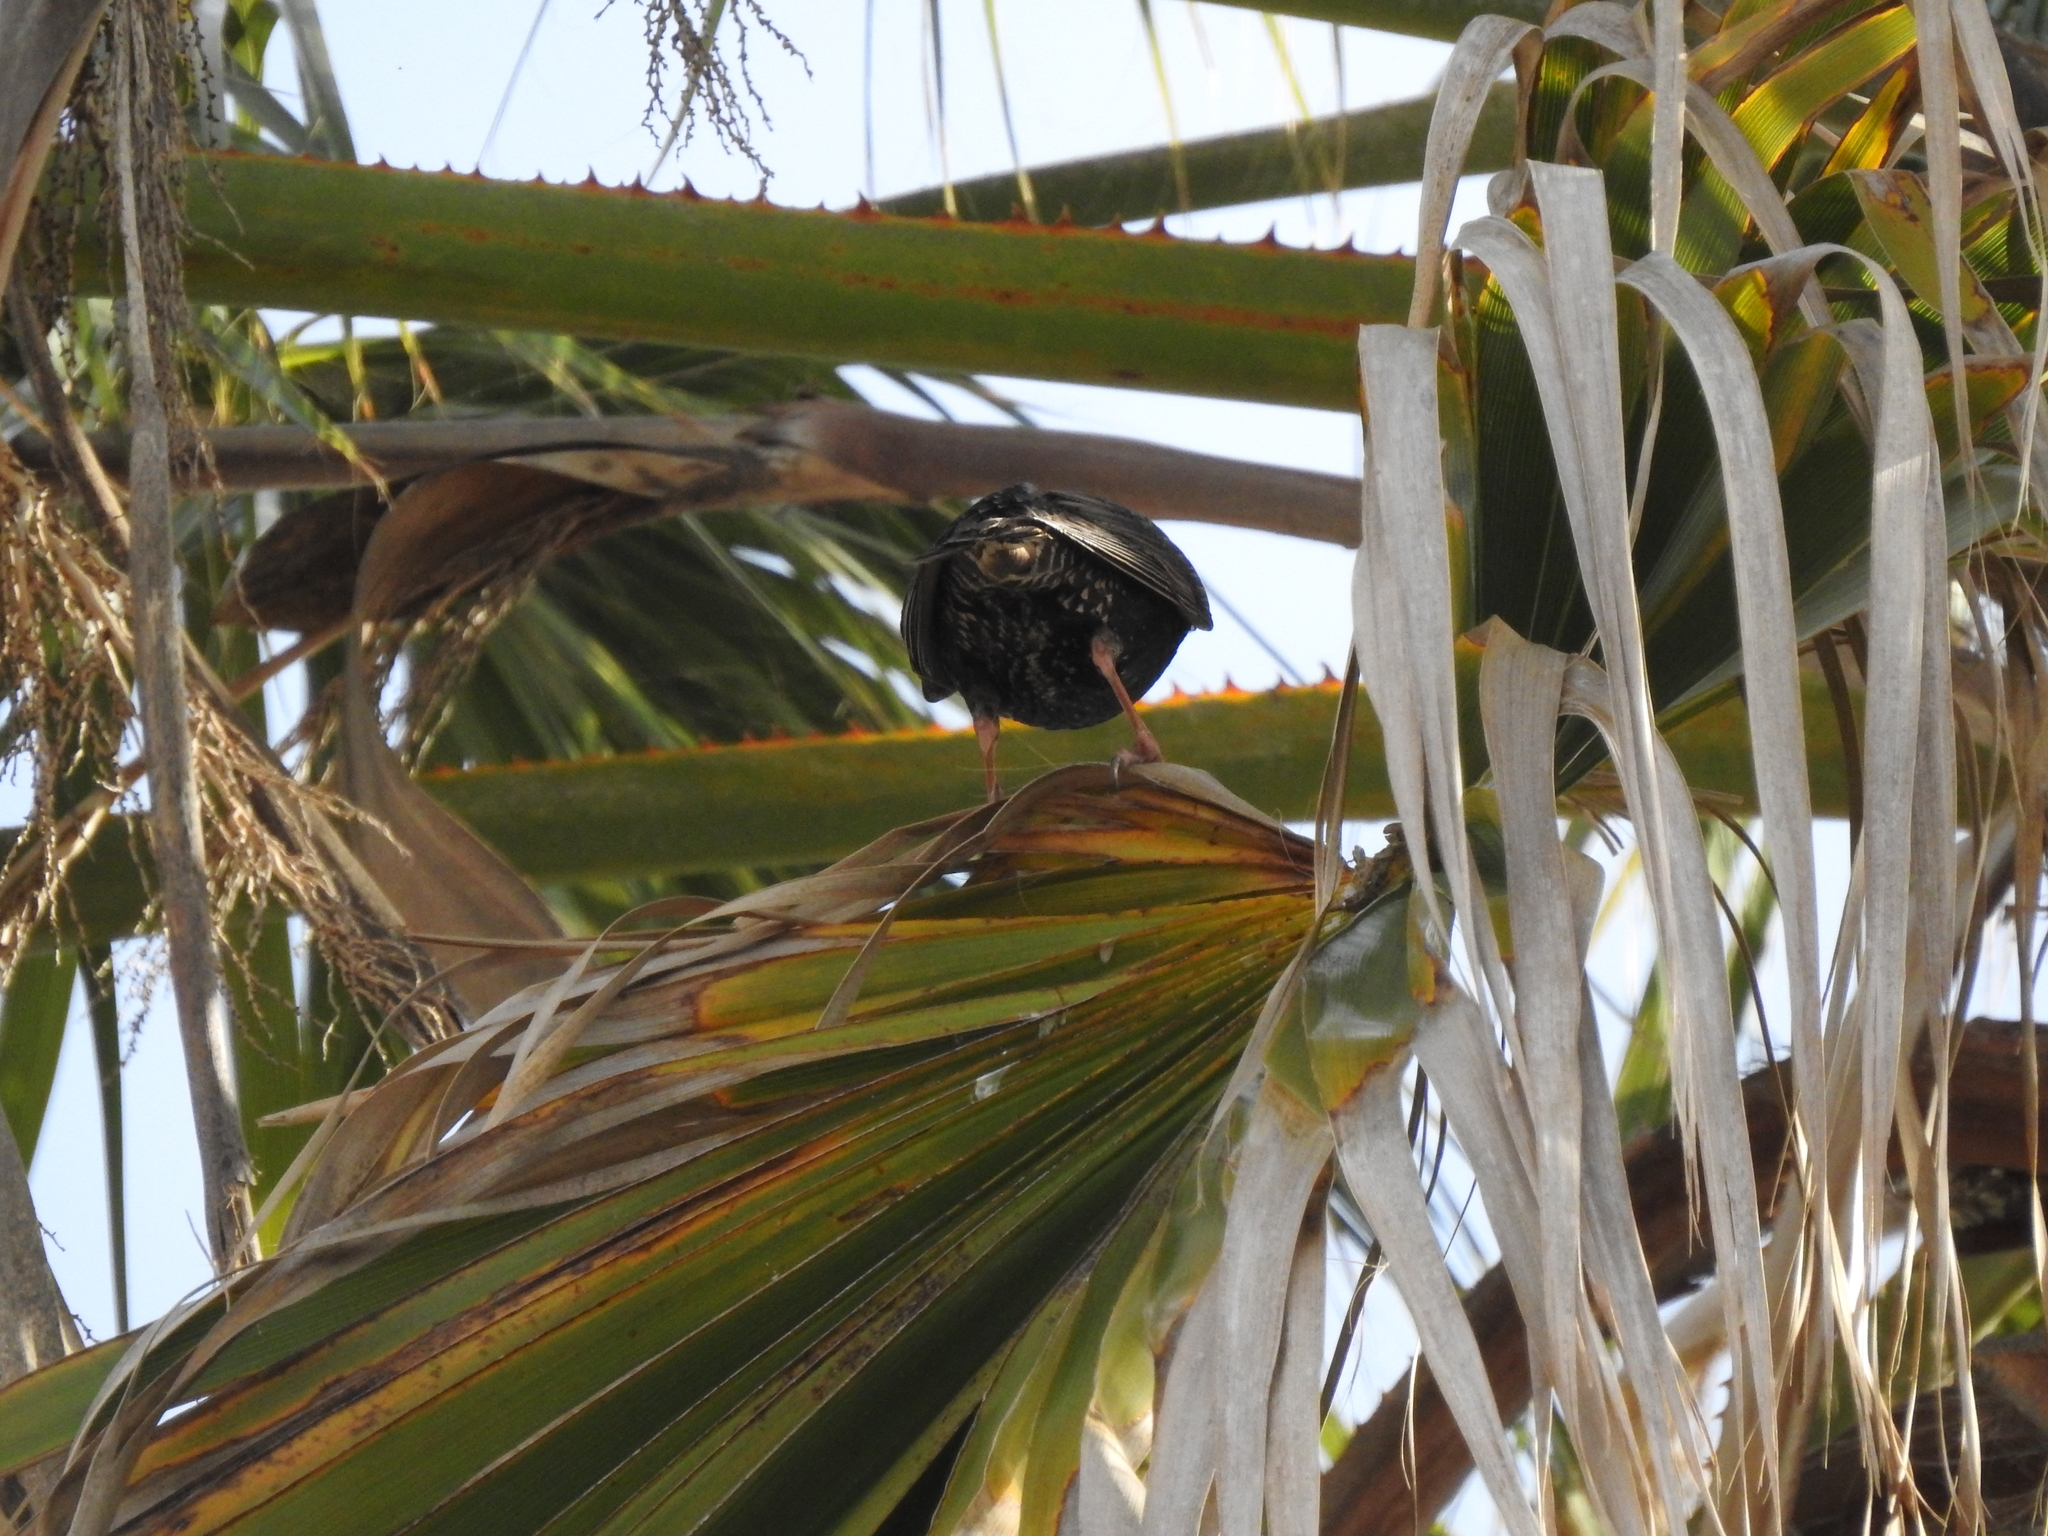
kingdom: Animalia
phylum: Chordata
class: Aves
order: Passeriformes
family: Sturnidae
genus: Sturnus
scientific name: Sturnus vulgaris
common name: Common starling
